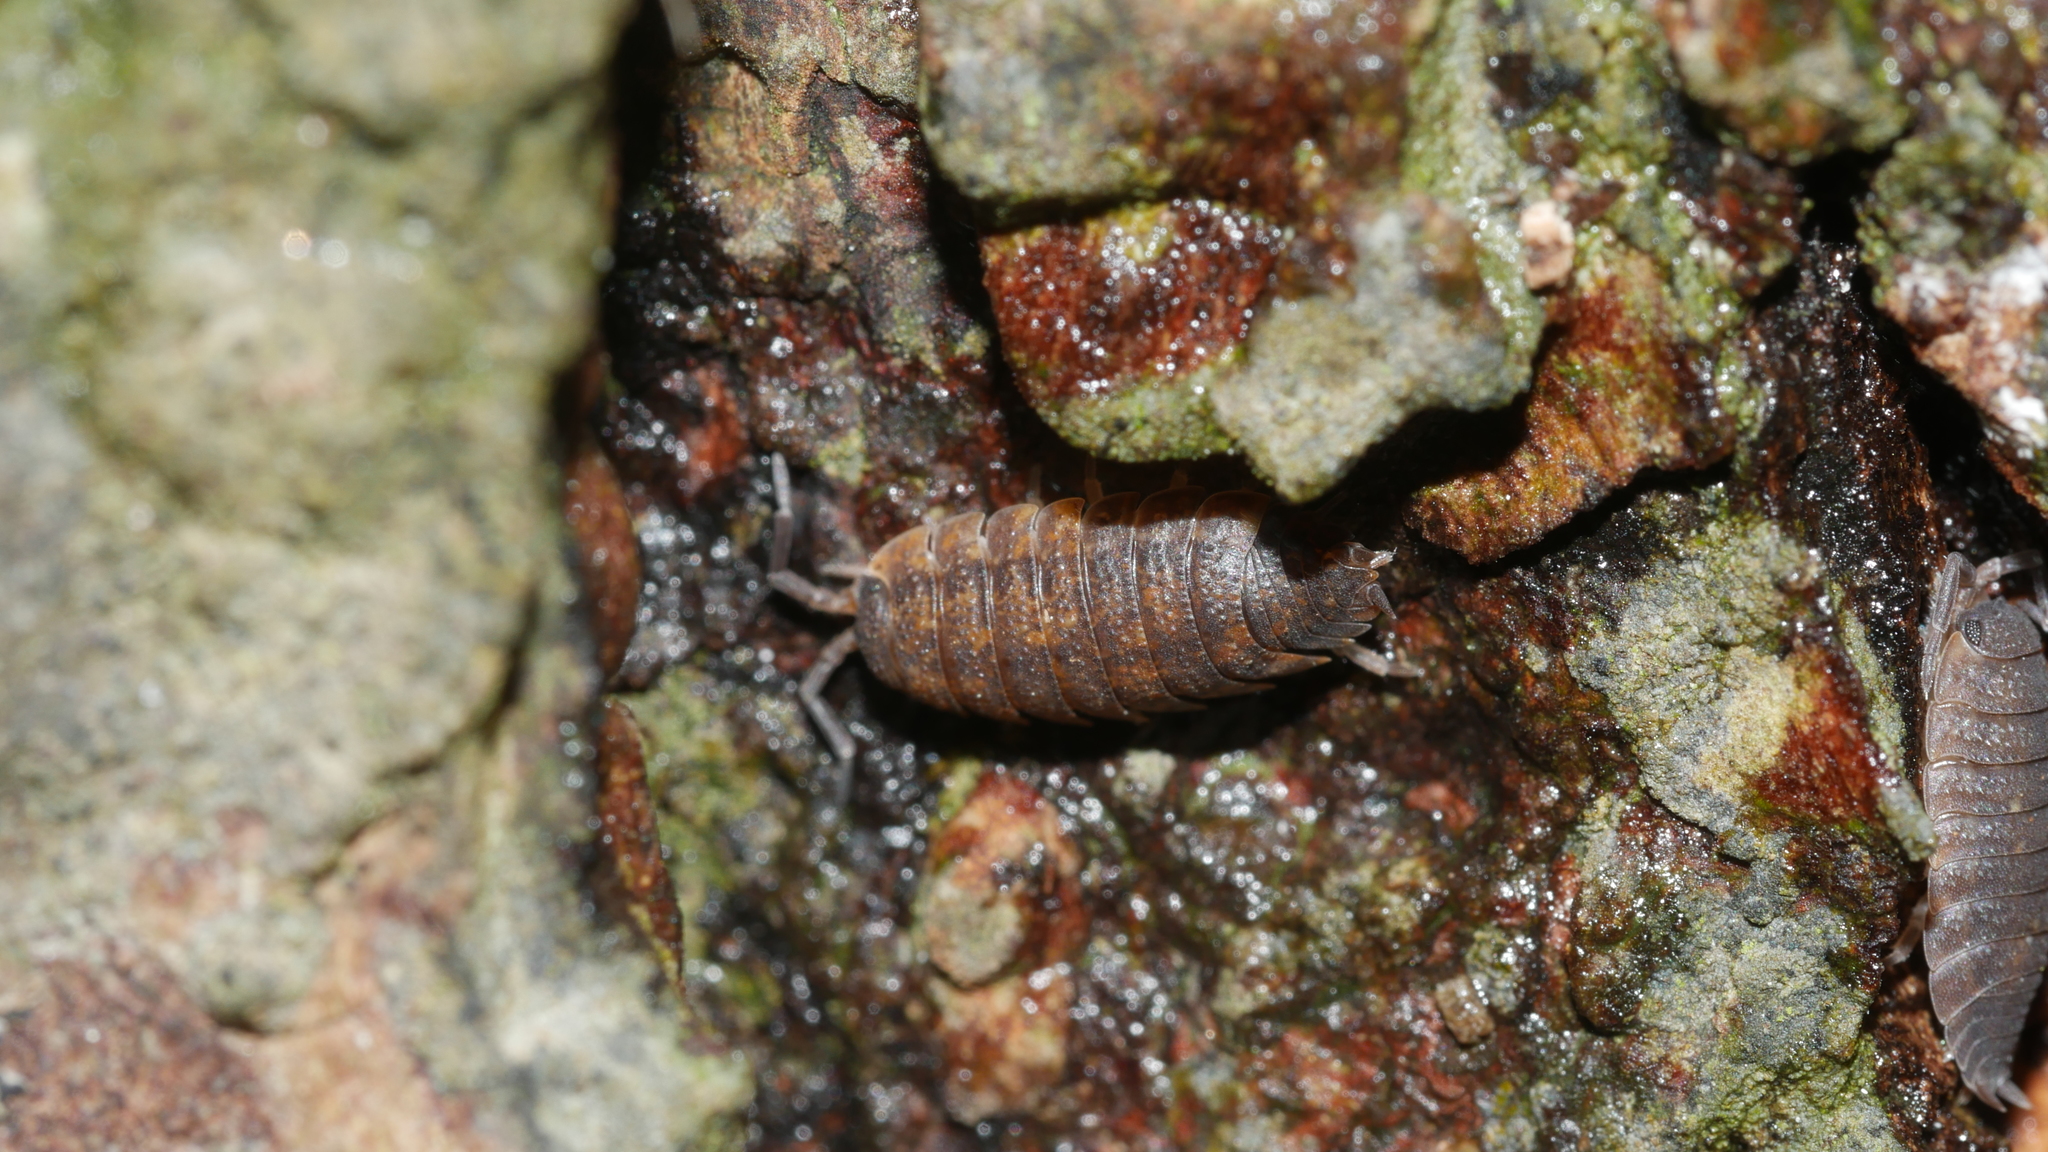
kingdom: Animalia
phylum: Arthropoda
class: Malacostraca
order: Isopoda
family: Porcellionidae
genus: Porcellio
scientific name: Porcellio scaber
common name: Common rough woodlouse
